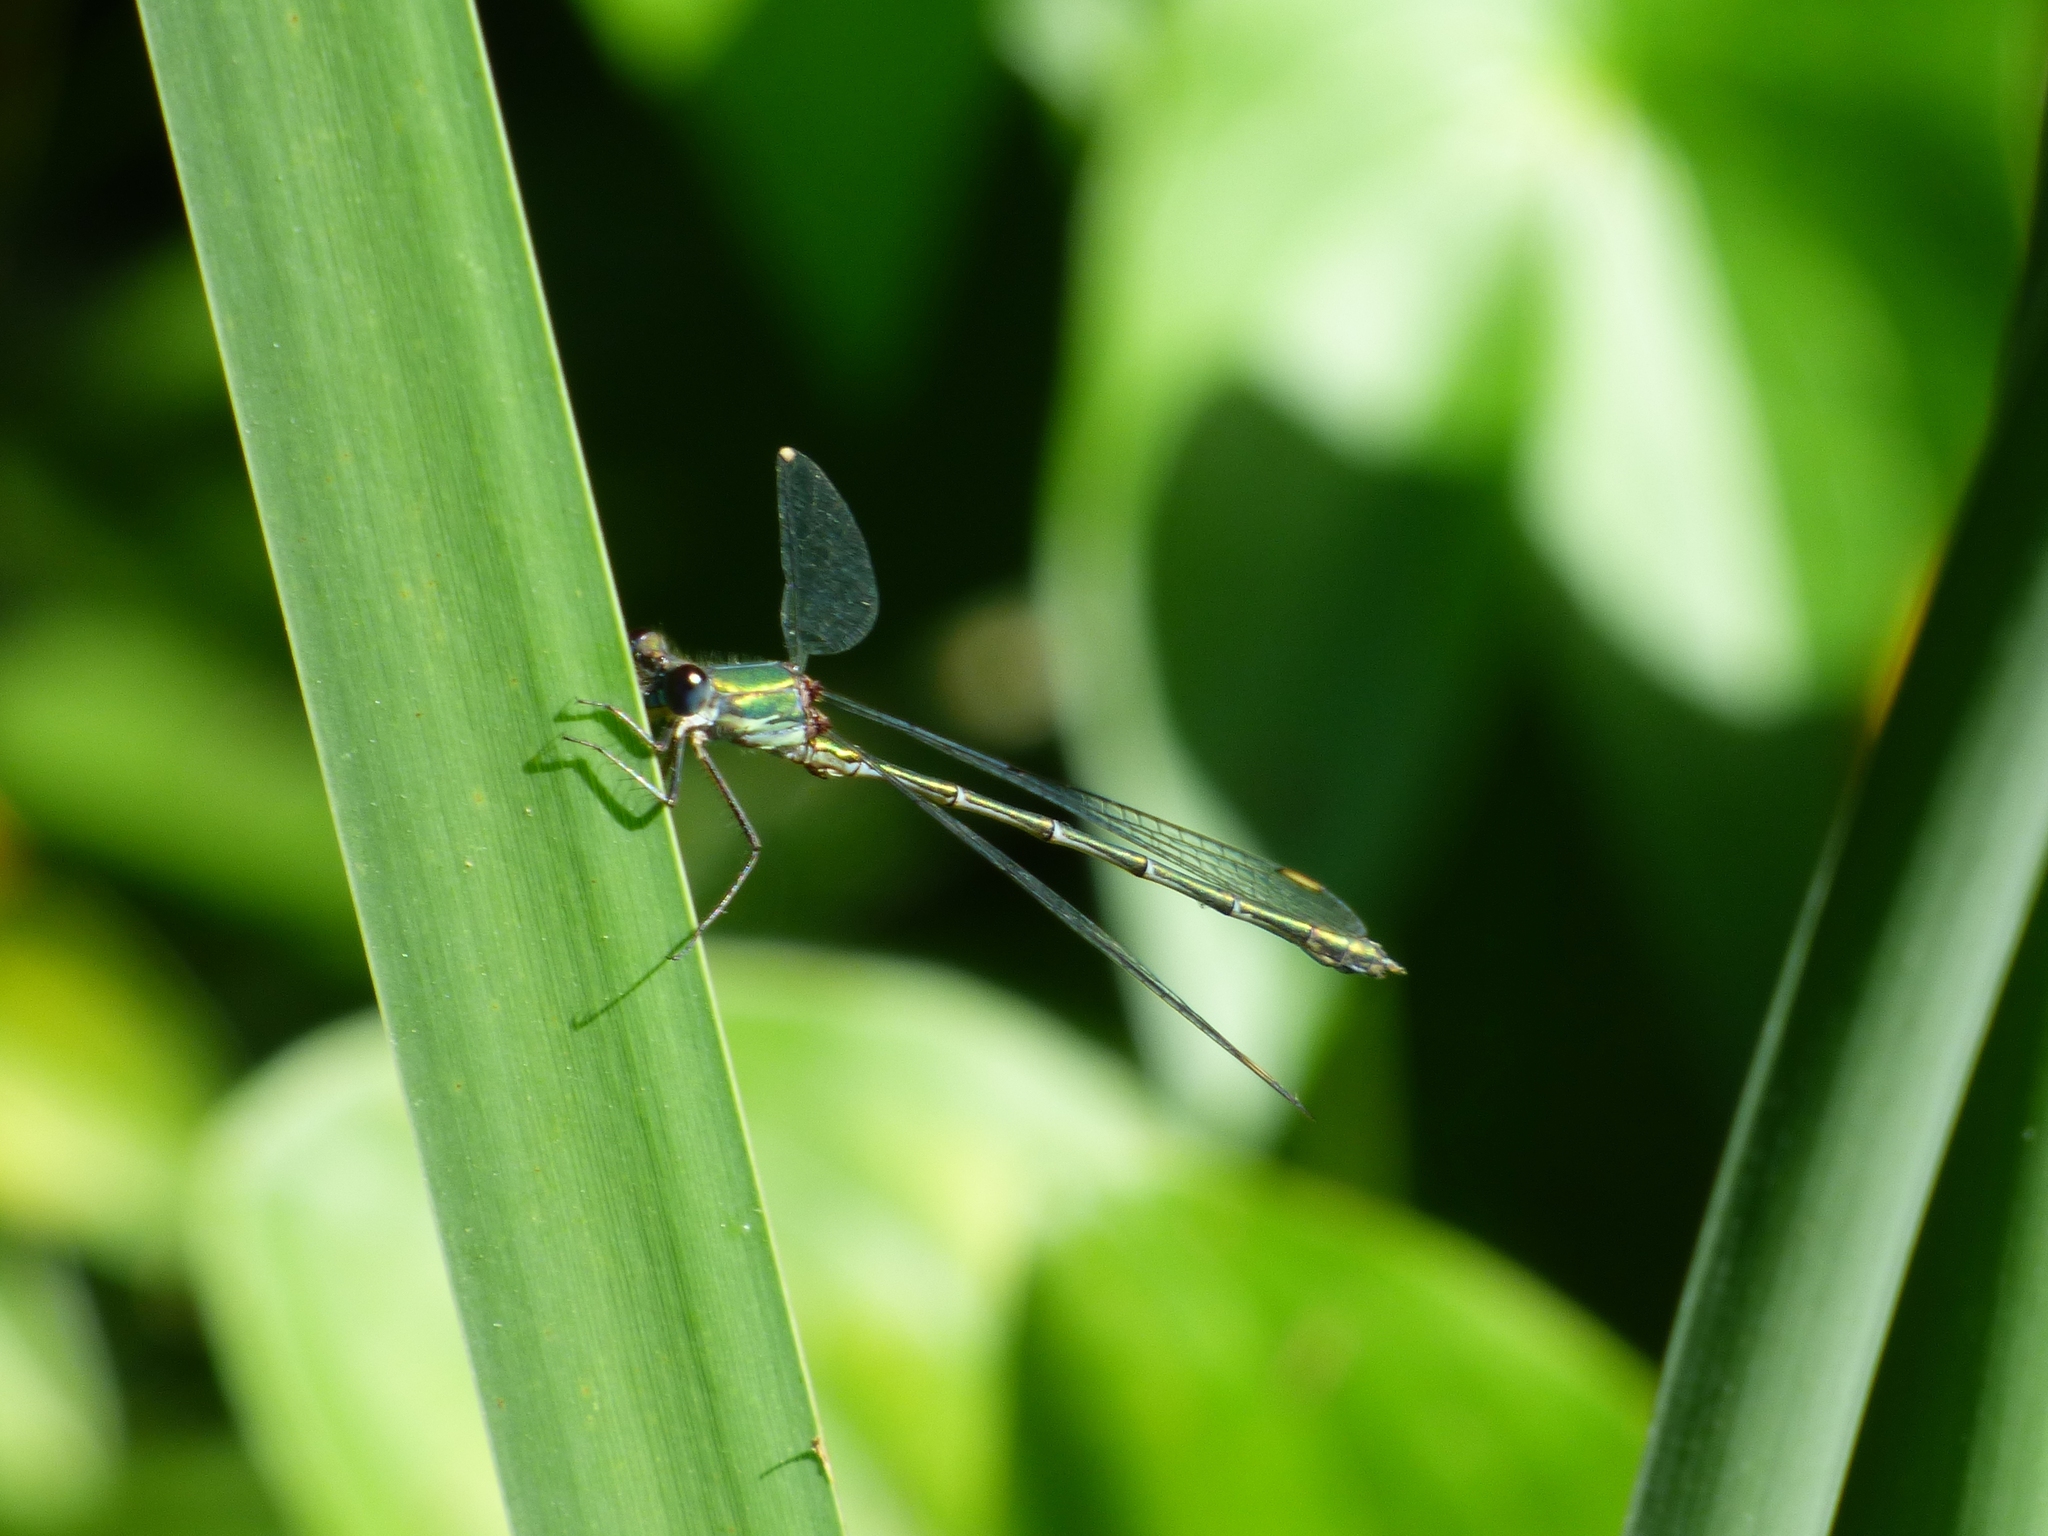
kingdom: Animalia
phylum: Arthropoda
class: Insecta
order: Odonata
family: Lestidae
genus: Chalcolestes
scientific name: Chalcolestes viridis
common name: Green emerald damselfly
